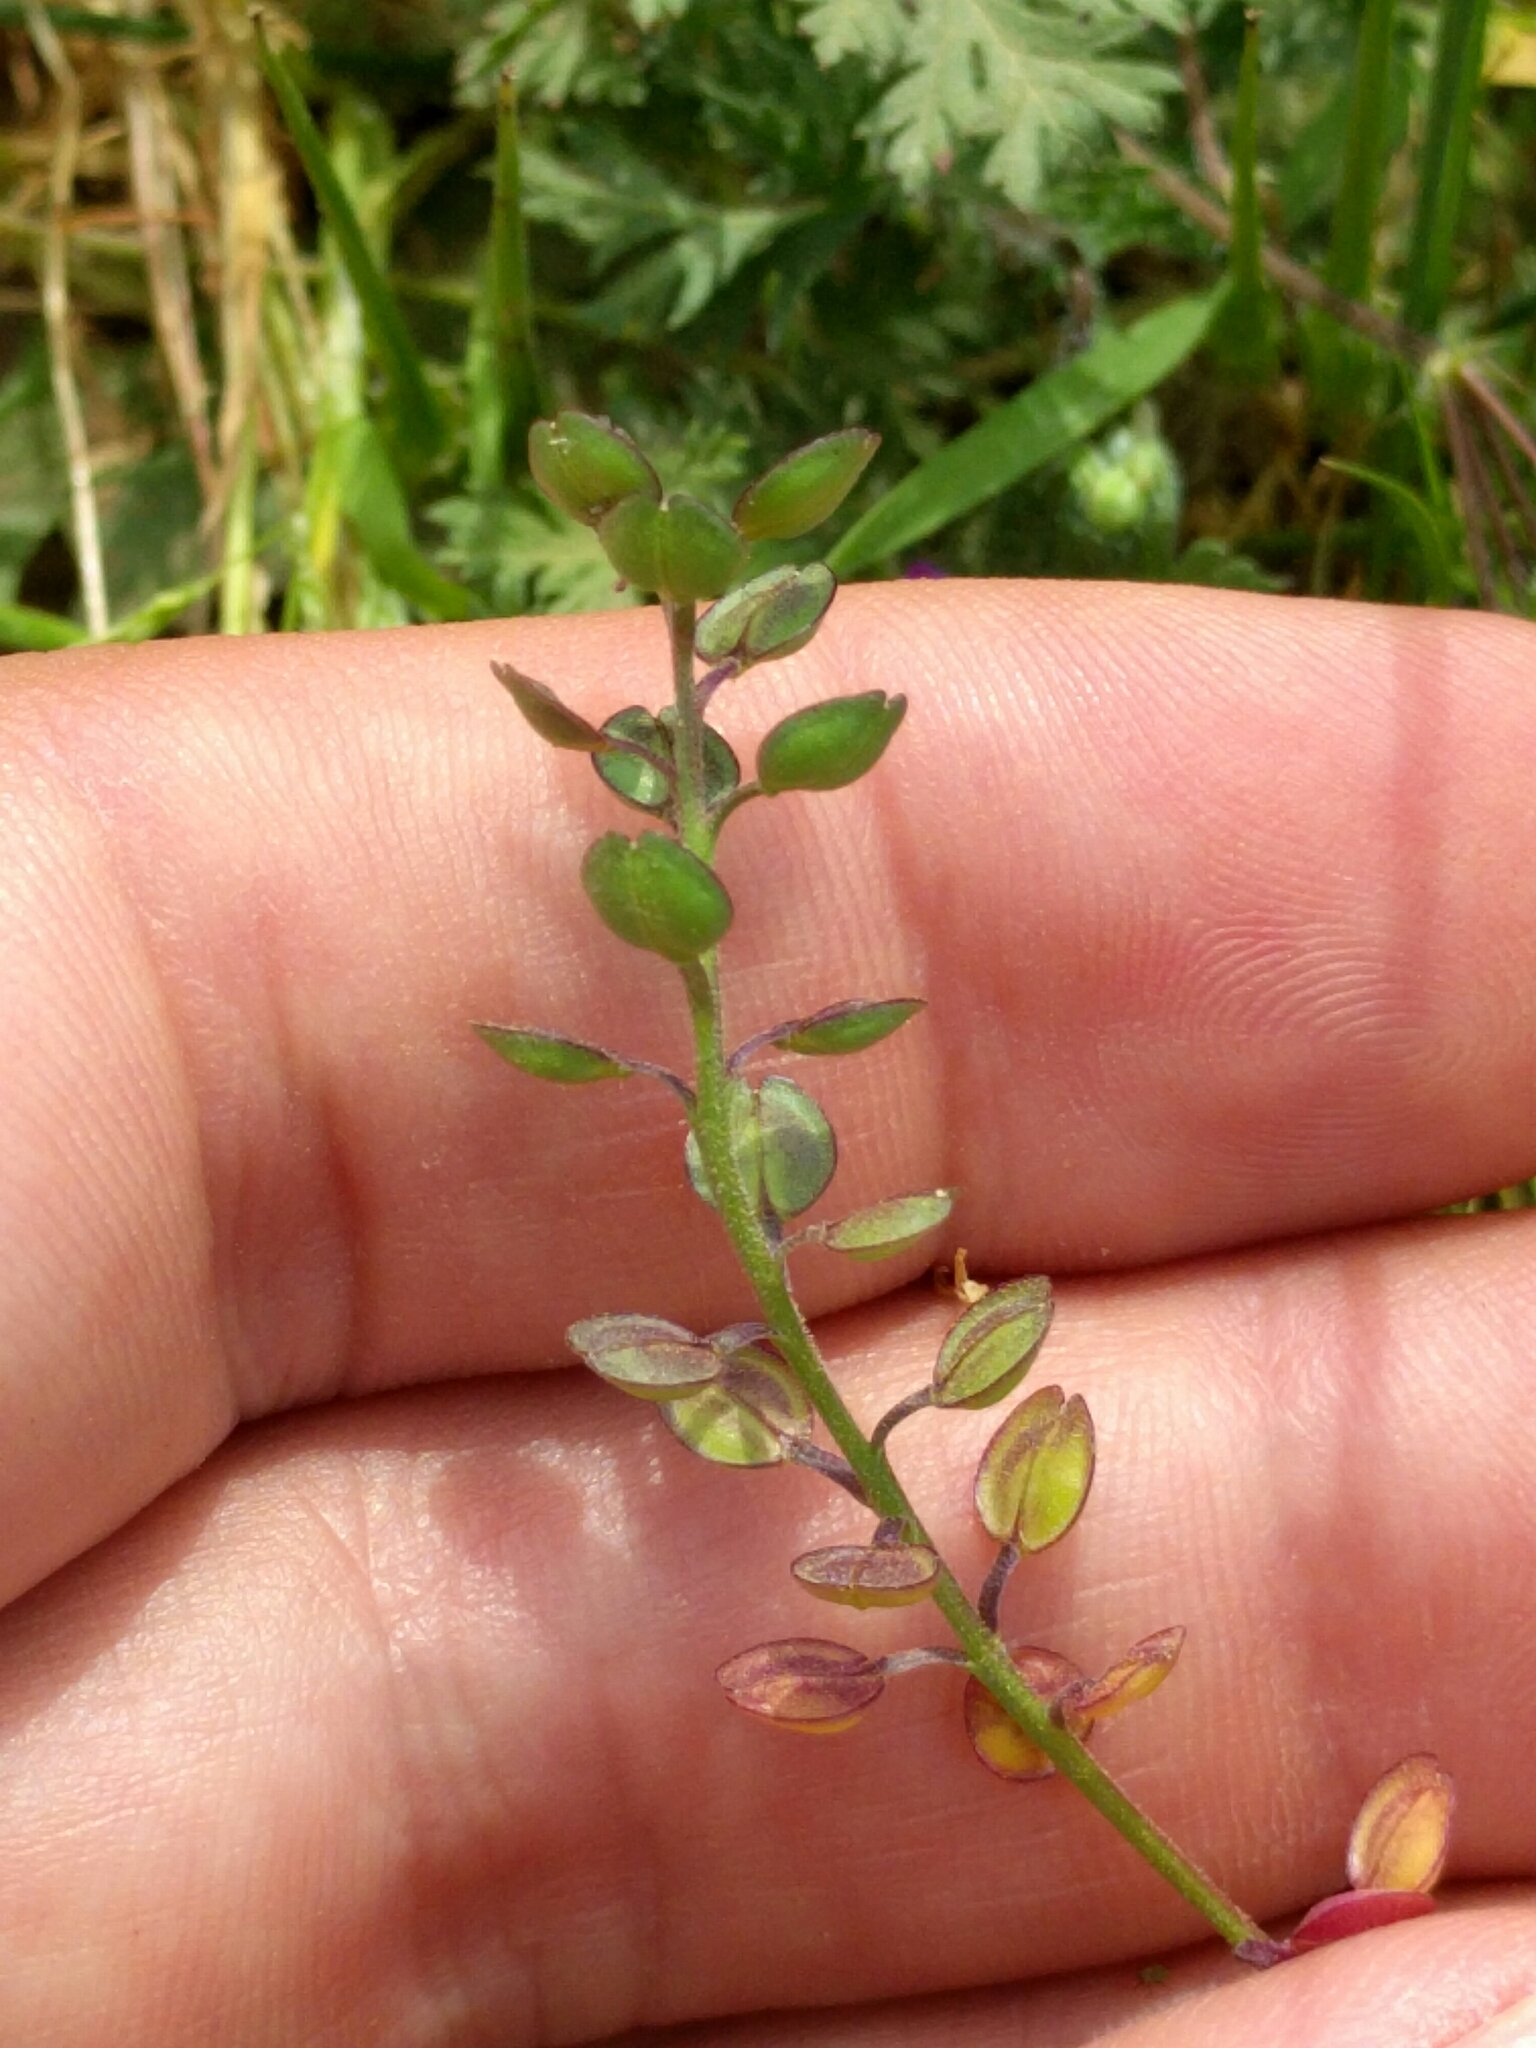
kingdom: Plantae
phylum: Tracheophyta
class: Magnoliopsida
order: Brassicales
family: Brassicaceae
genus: Lepidium
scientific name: Lepidium nitidum
